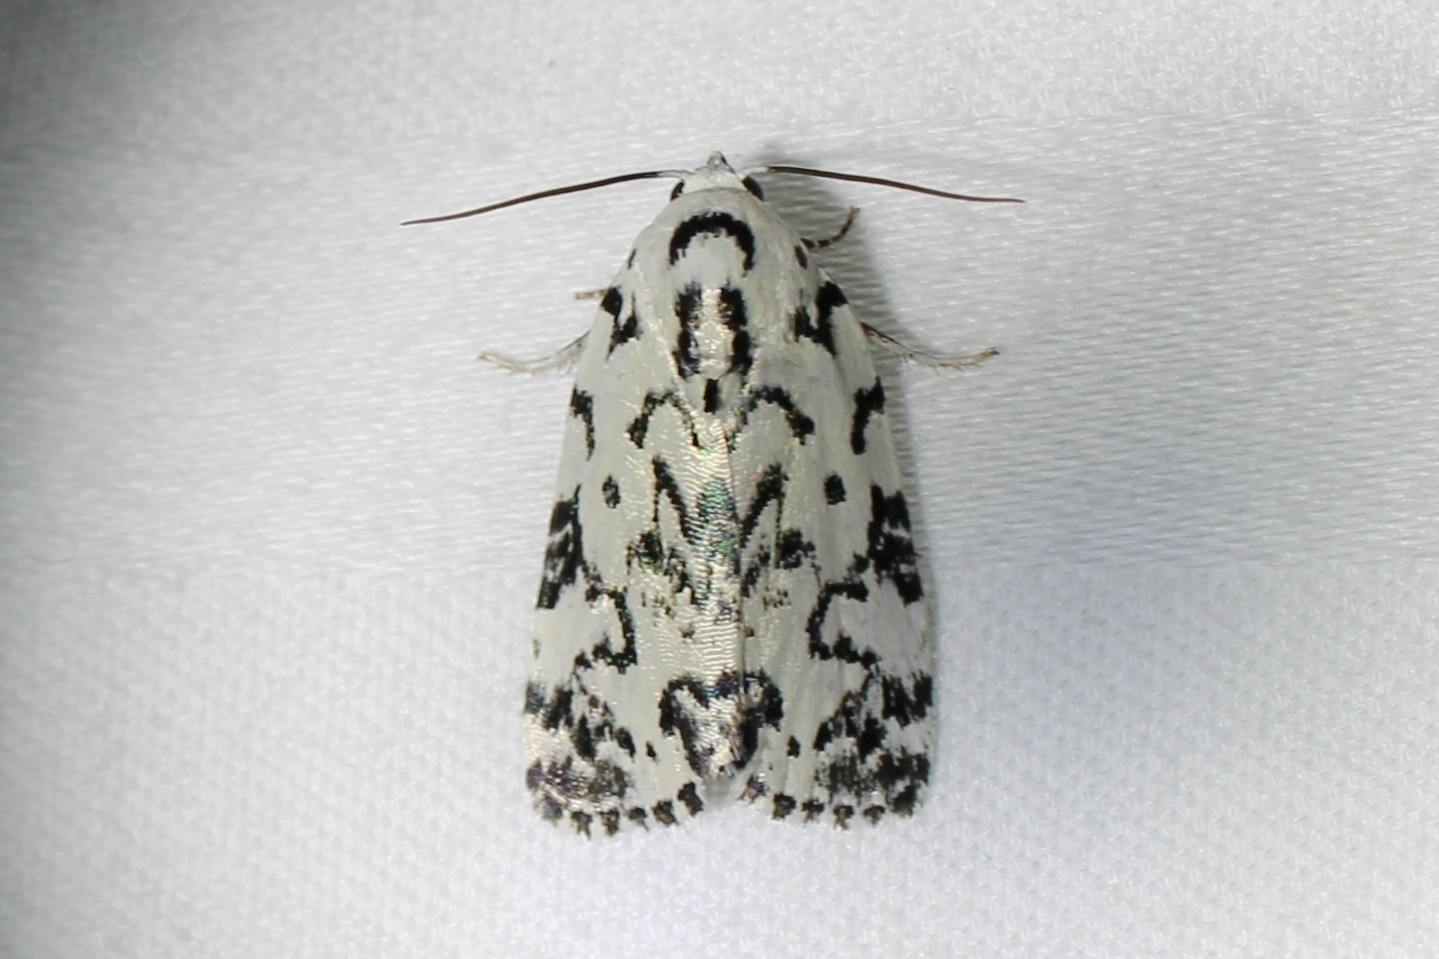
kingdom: Animalia
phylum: Arthropoda
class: Insecta
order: Lepidoptera
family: Noctuidae
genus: Polygrammate
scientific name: Polygrammate hebraeicum
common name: Hebrew moth
